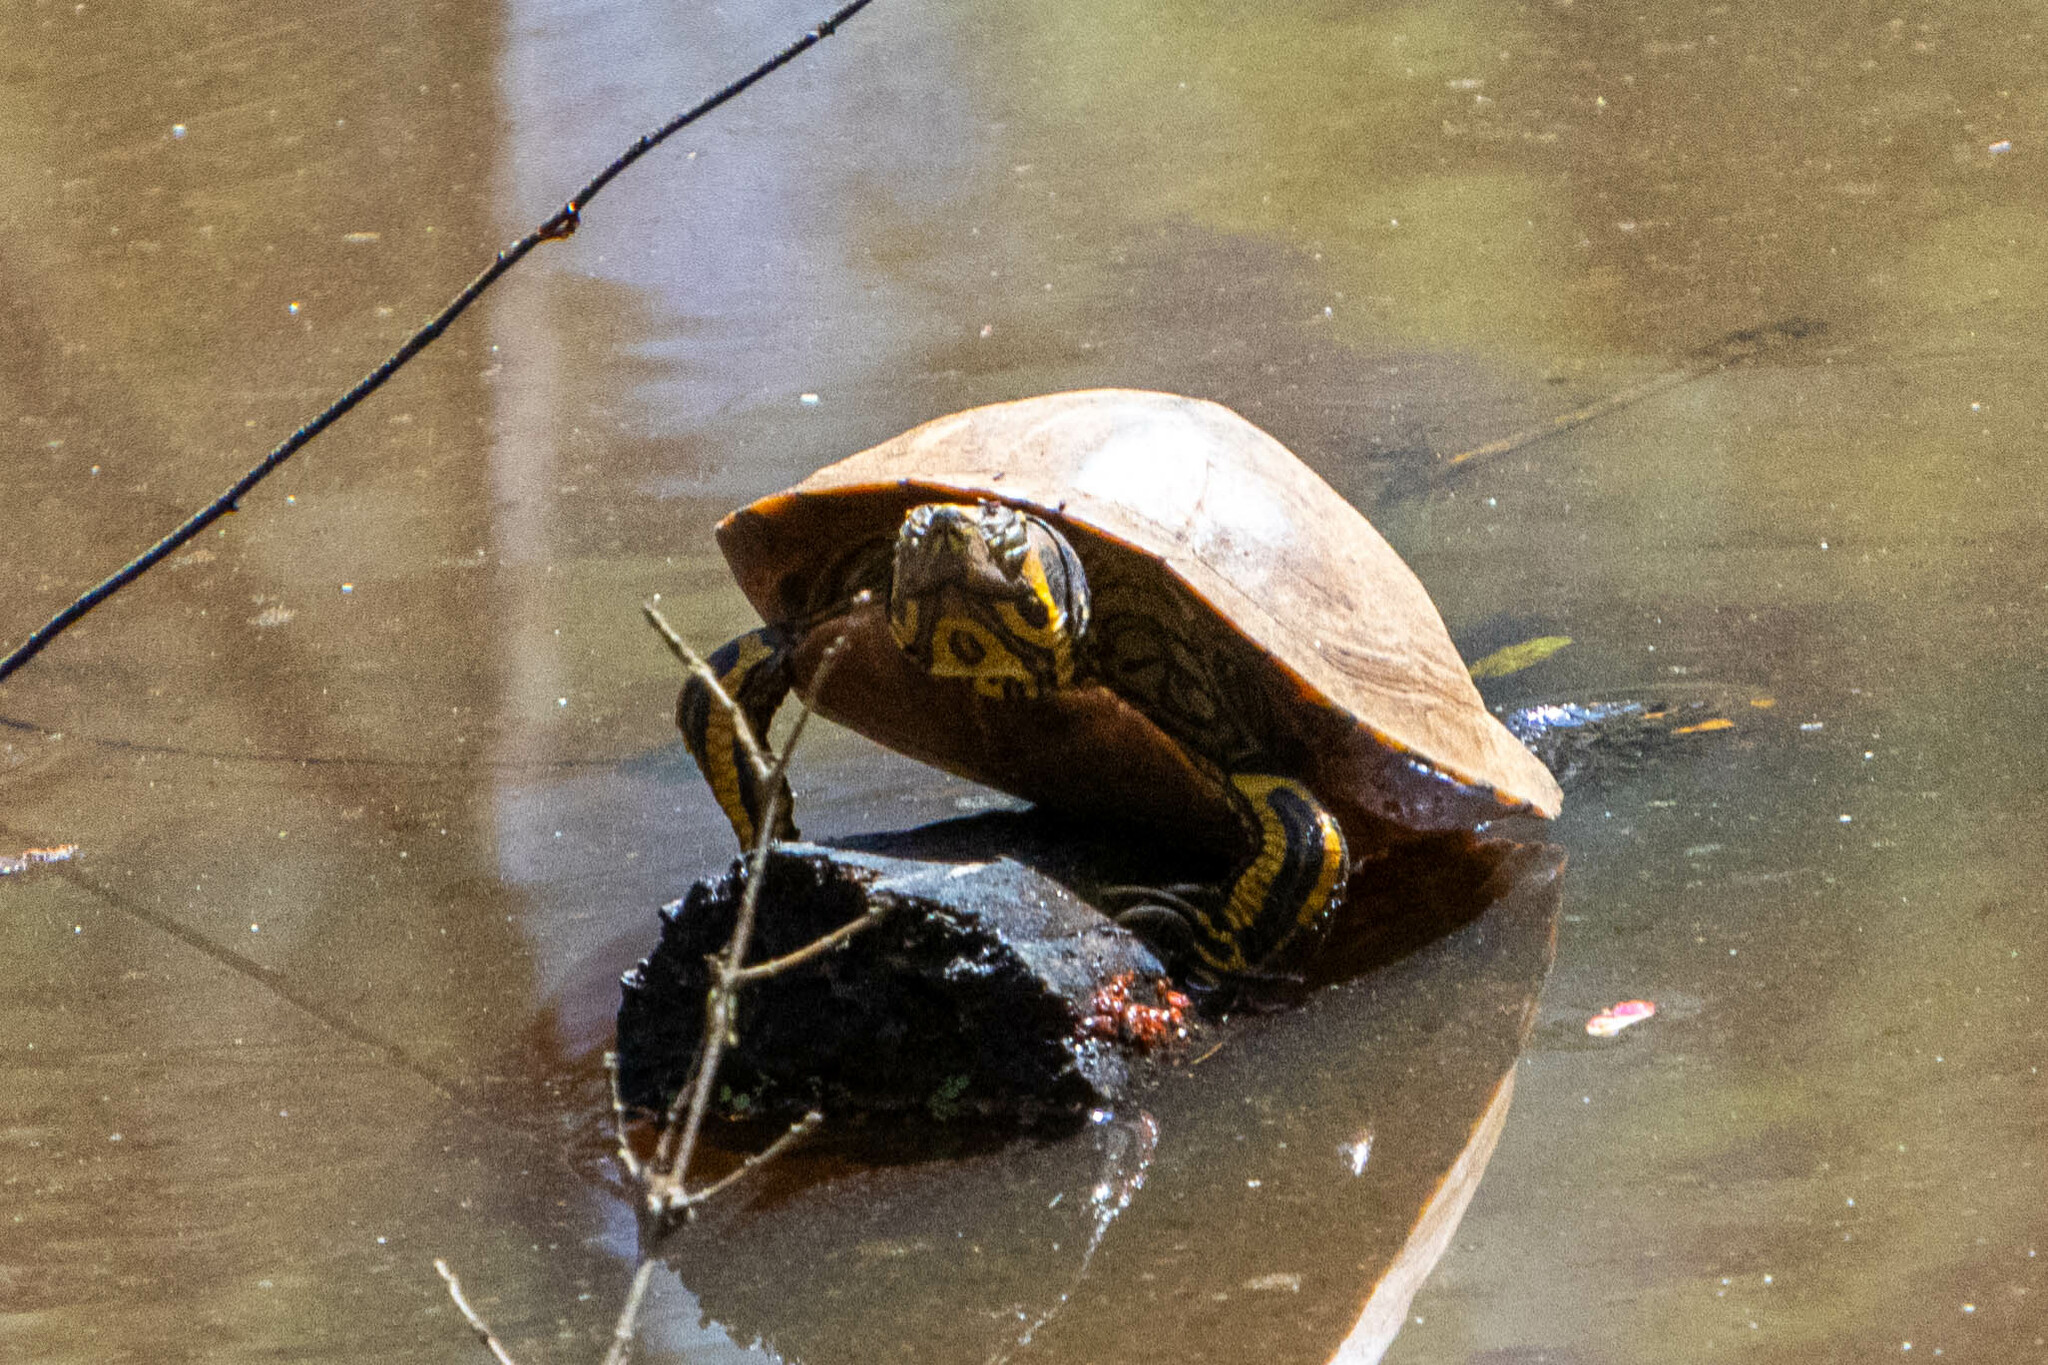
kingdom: Animalia
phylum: Chordata
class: Testudines
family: Emydidae
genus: Trachemys
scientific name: Trachemys scripta
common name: Slider
